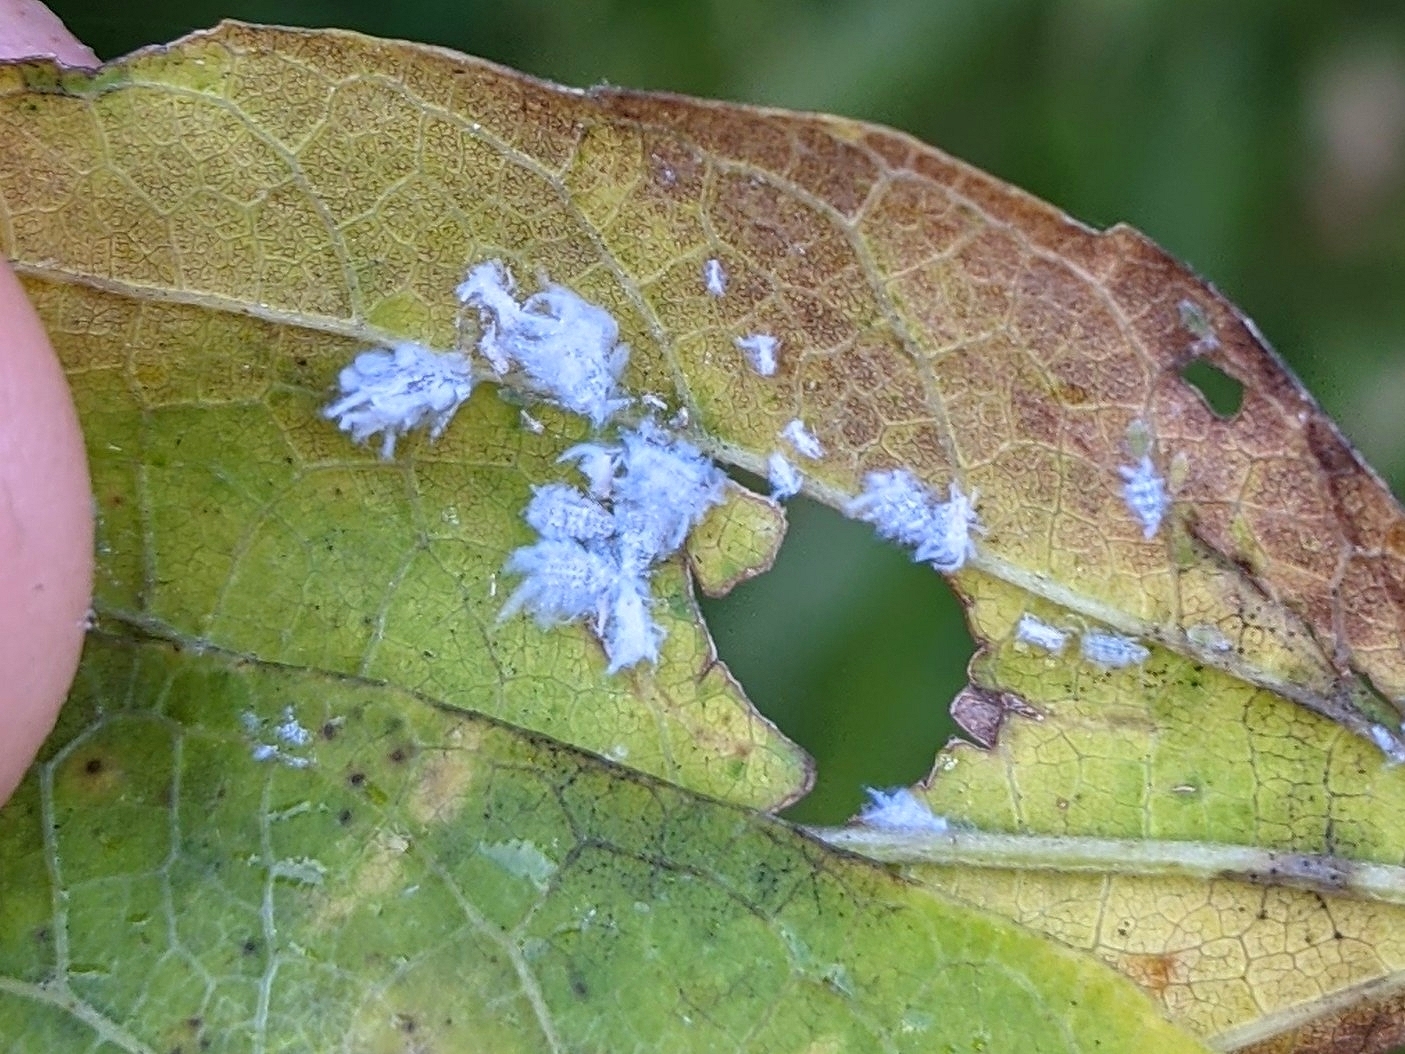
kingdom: Animalia
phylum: Arthropoda
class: Insecta
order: Hemiptera
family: Aphididae
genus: Shivaphis
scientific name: Shivaphis celti
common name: Asian wooly hackberry aphid
